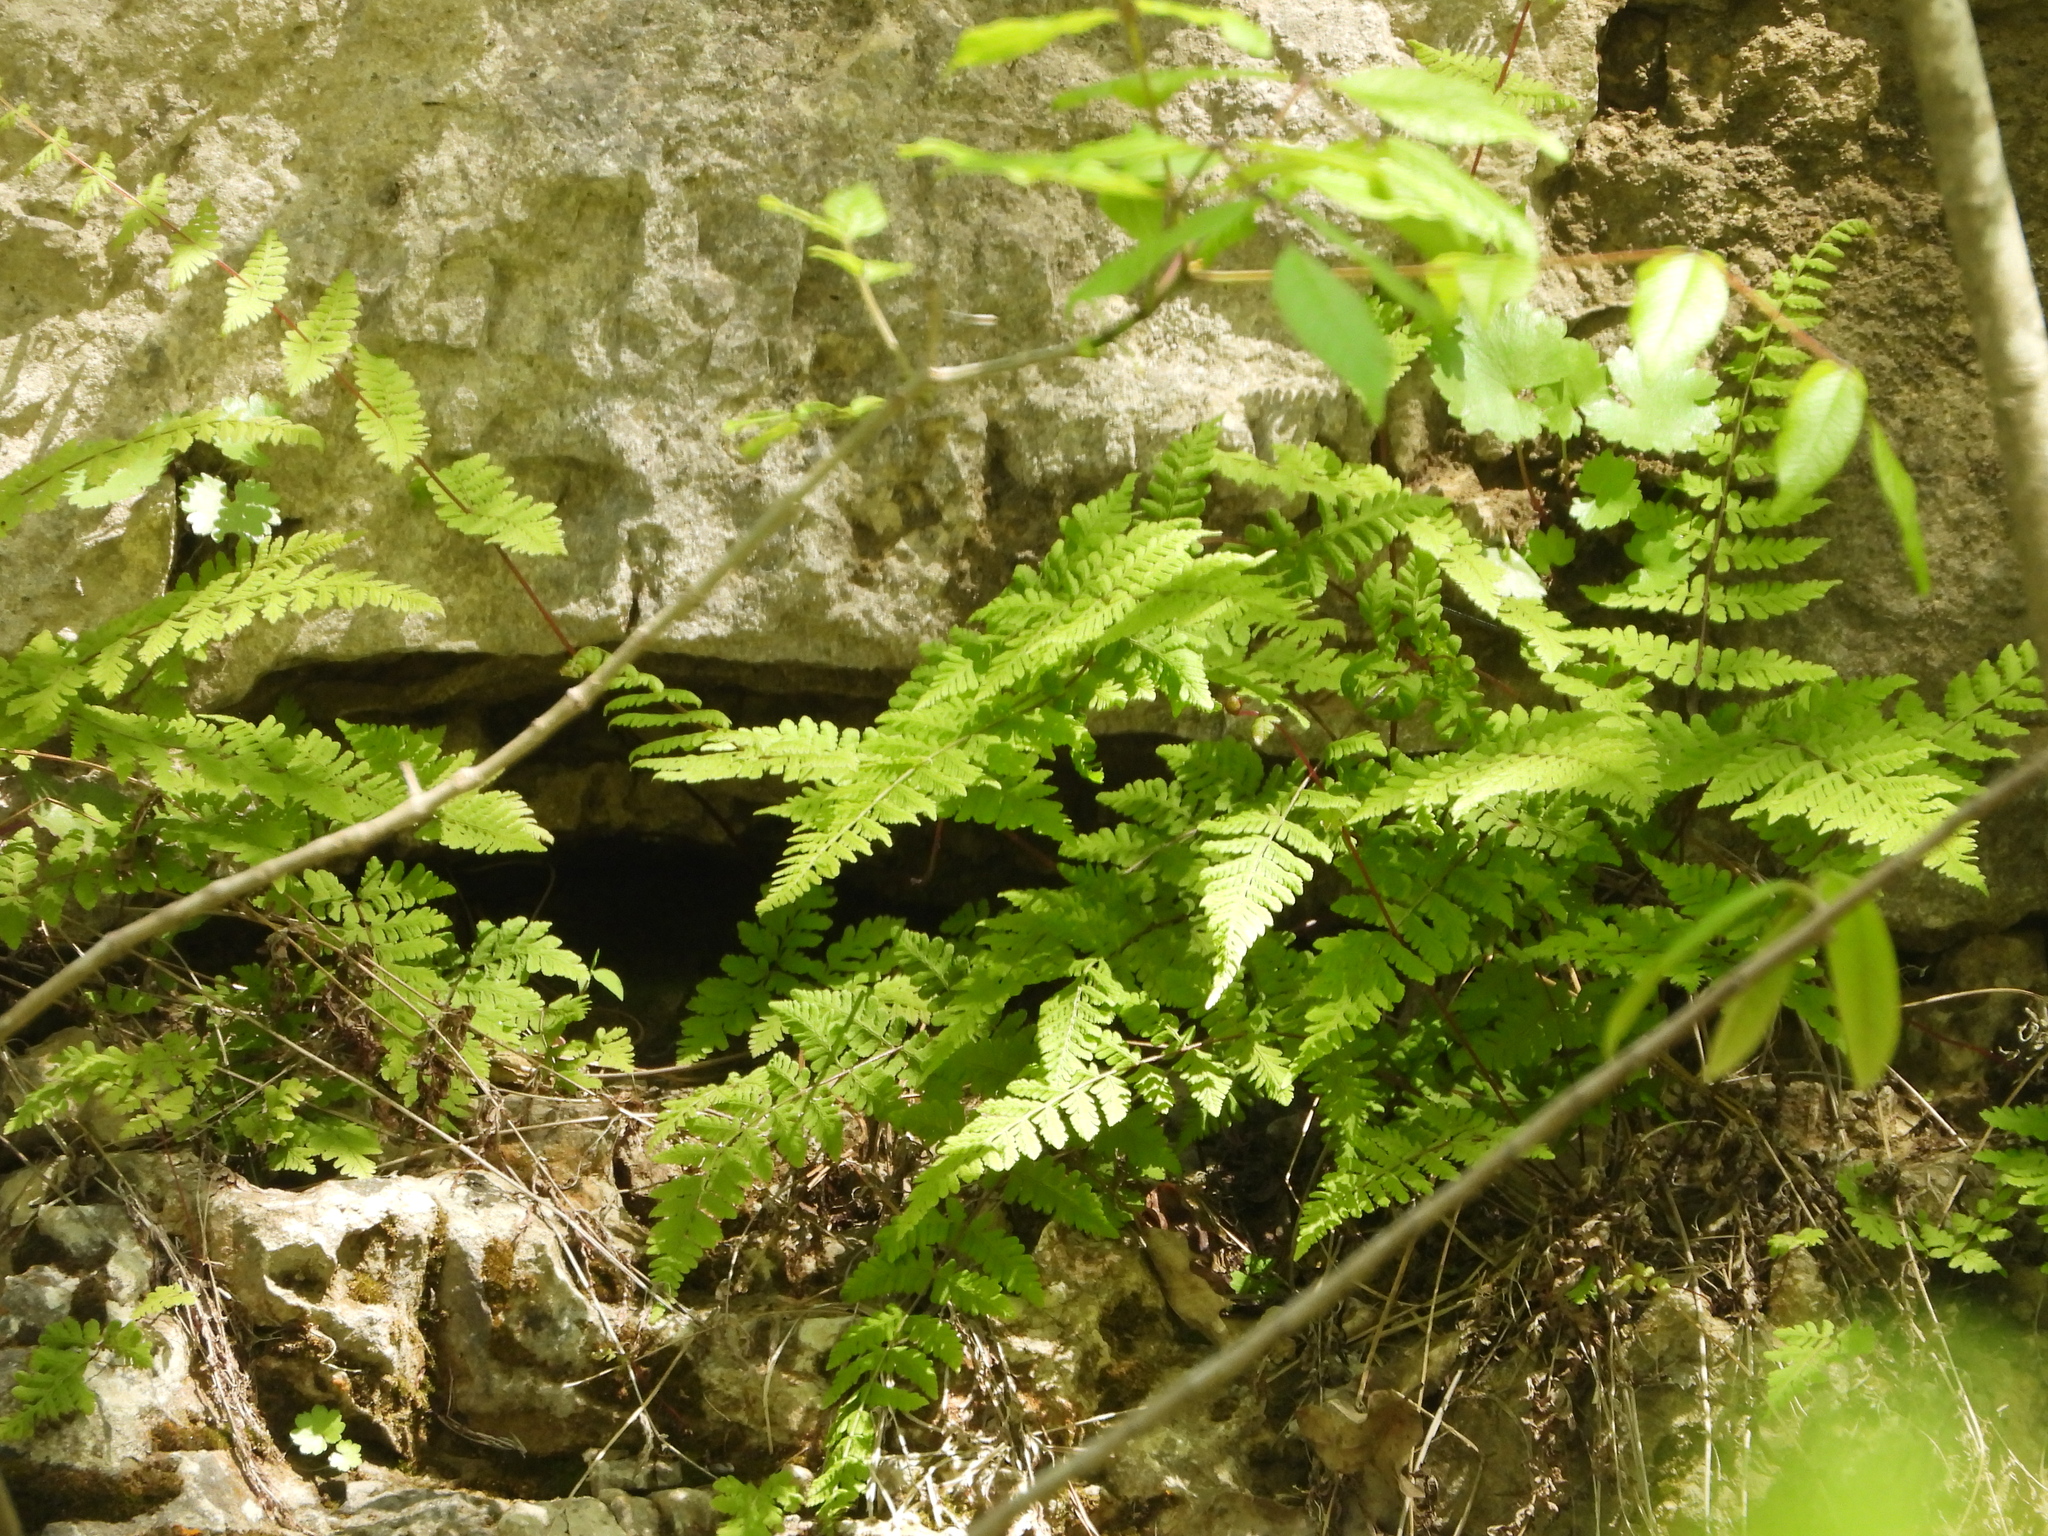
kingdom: Plantae
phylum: Tracheophyta
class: Polypodiopsida
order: Polypodiales
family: Cystopteridaceae
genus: Cystopteris
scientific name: Cystopteris bulbifera
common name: Bulblet bladder fern
